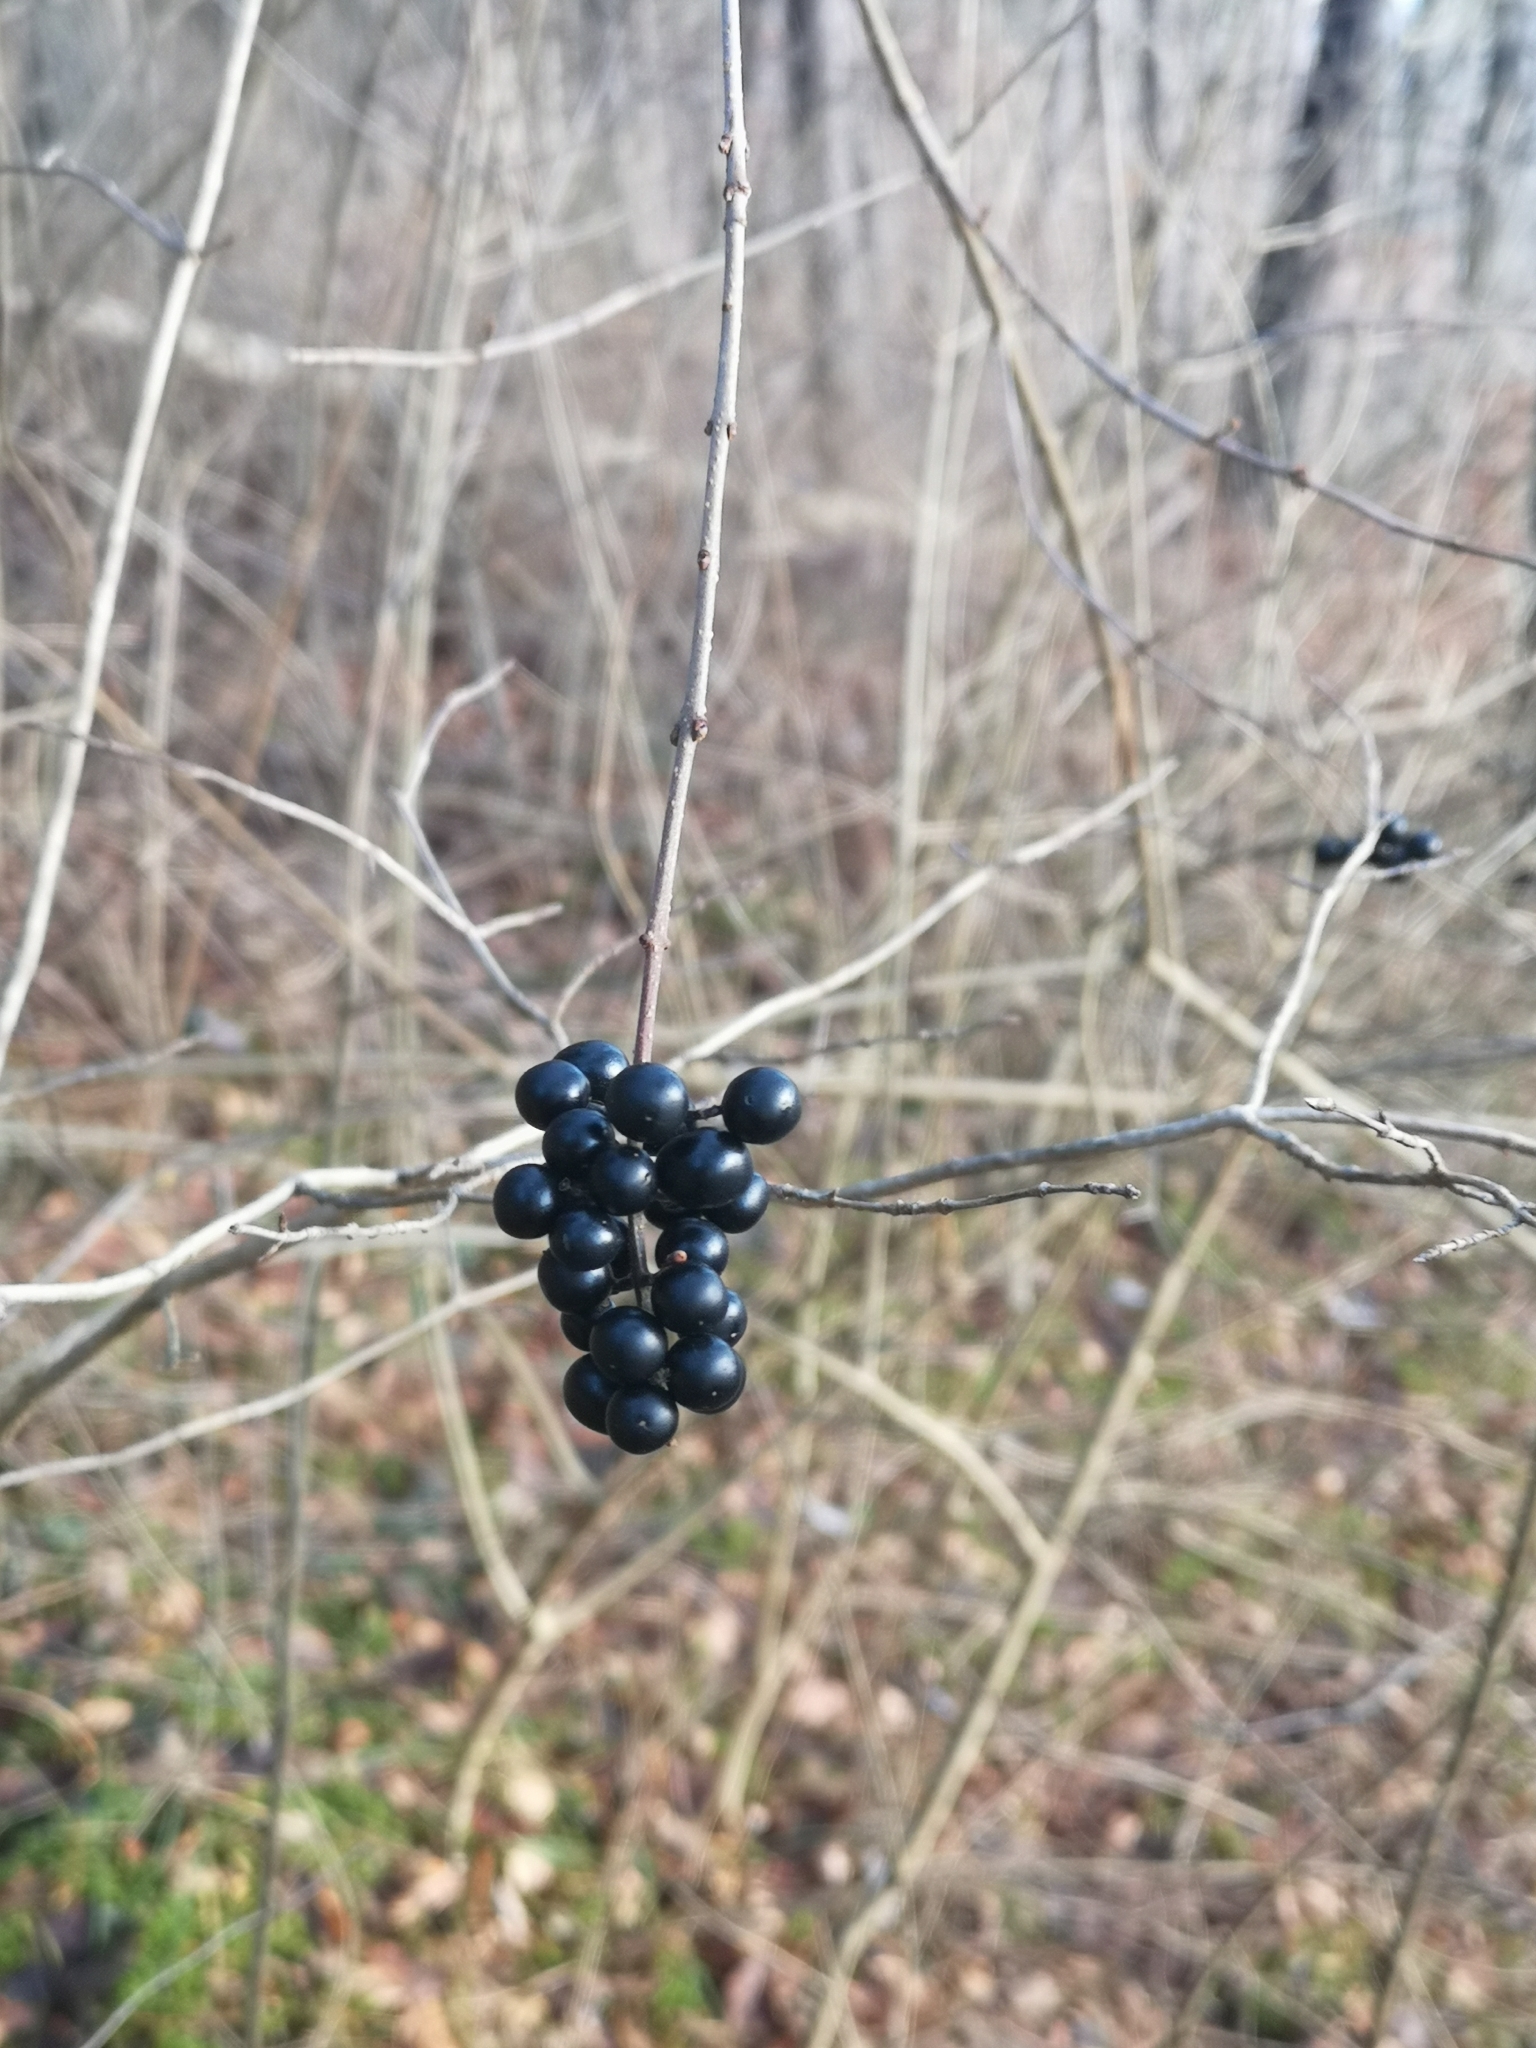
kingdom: Plantae
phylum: Tracheophyta
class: Magnoliopsida
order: Lamiales
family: Oleaceae
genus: Ligustrum
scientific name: Ligustrum vulgare
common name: Wild privet
